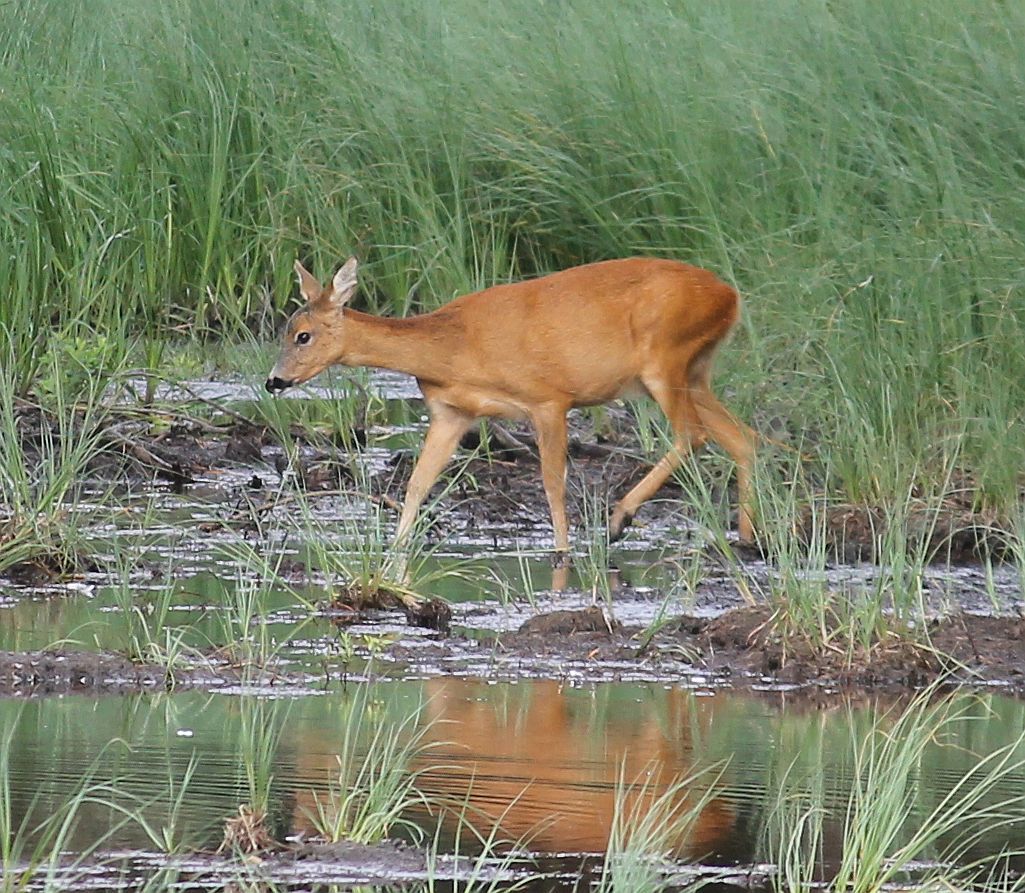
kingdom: Animalia
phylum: Chordata
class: Mammalia
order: Artiodactyla
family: Cervidae
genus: Capreolus
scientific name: Capreolus capreolus
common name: Western roe deer
